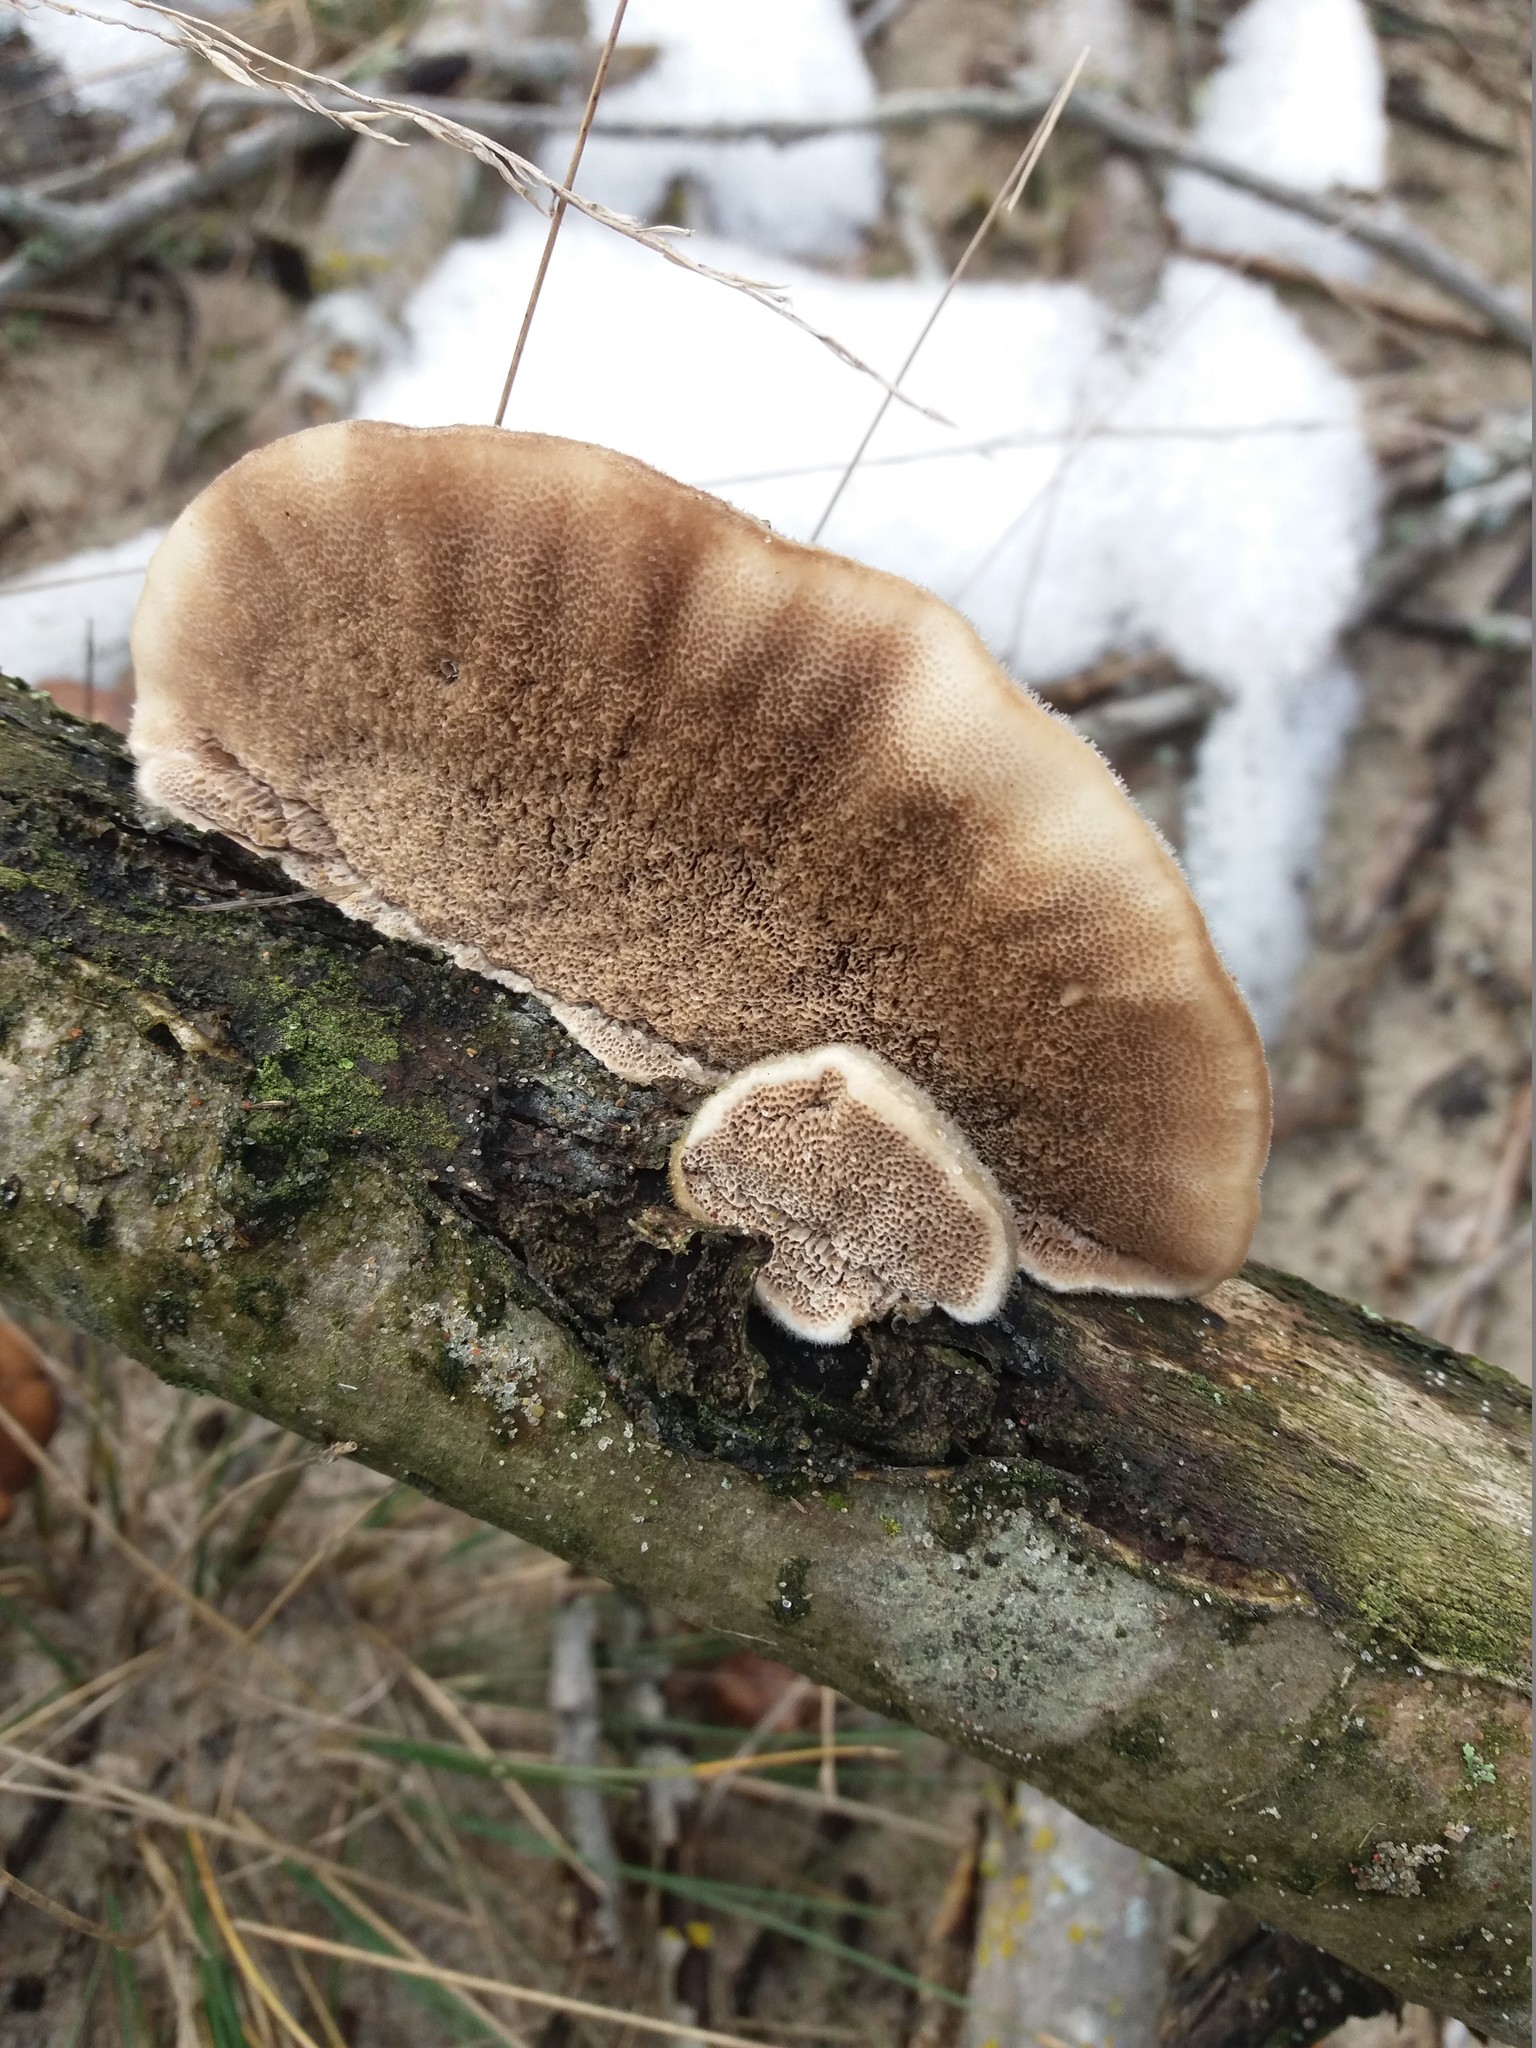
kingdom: Fungi
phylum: Basidiomycota
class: Agaricomycetes
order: Polyporales
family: Polyporaceae
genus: Trametes
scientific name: Trametes hirsuta
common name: Hairy bracket
